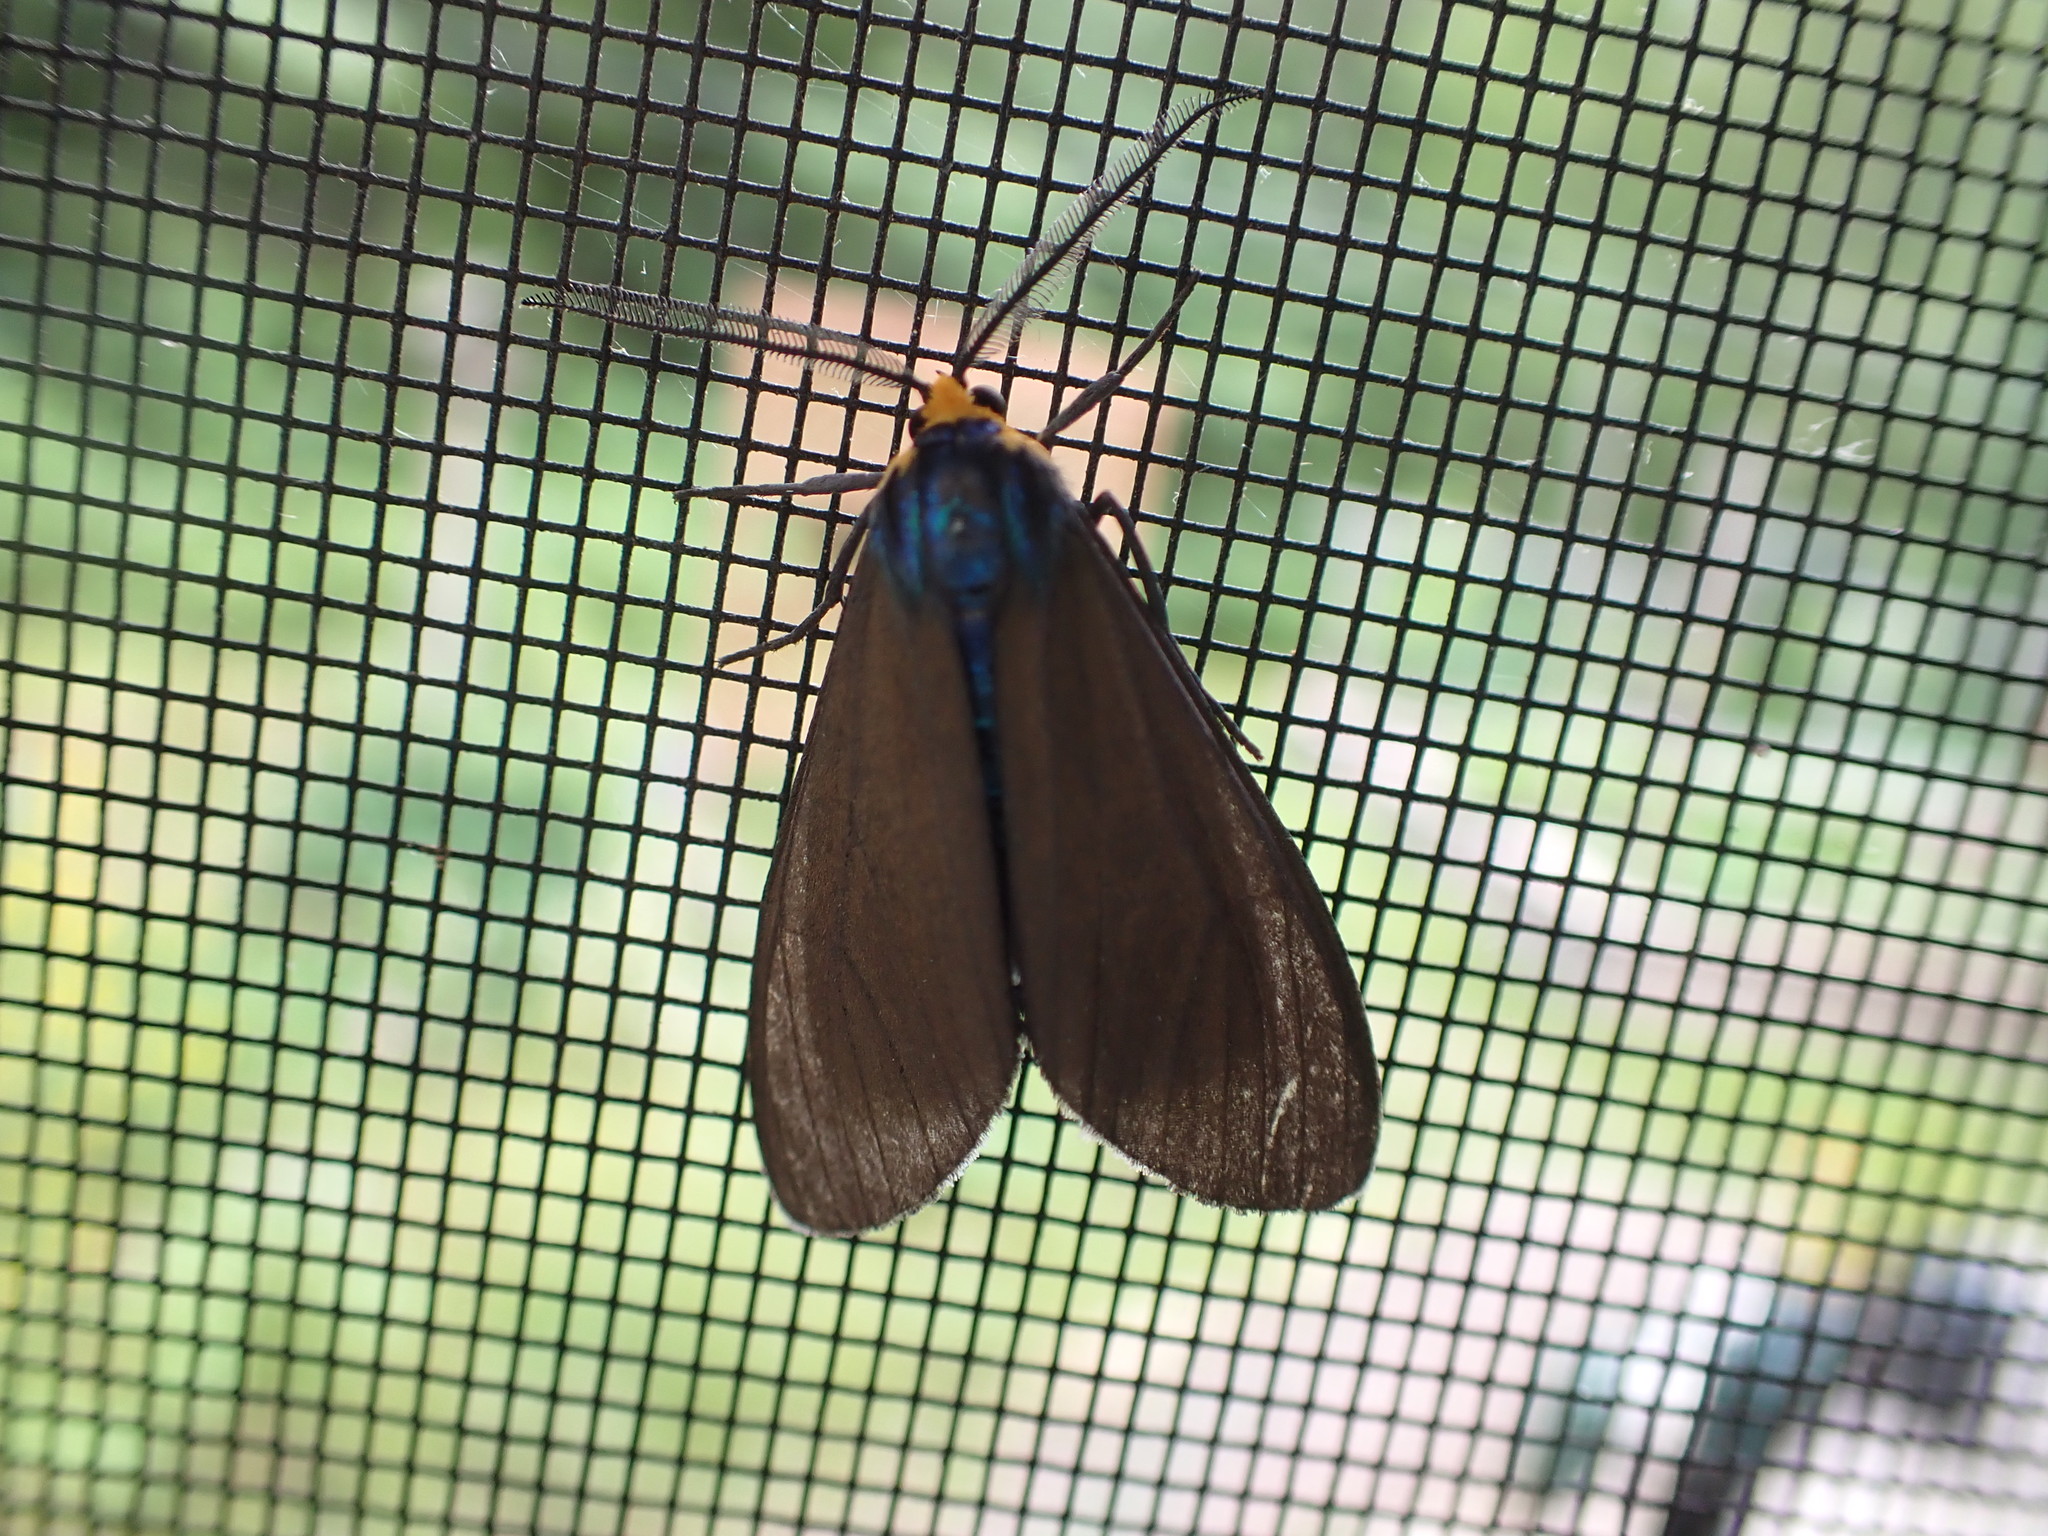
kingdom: Animalia
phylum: Arthropoda
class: Insecta
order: Lepidoptera
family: Erebidae
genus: Ctenucha
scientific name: Ctenucha virginica
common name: Virginia ctenucha moth
